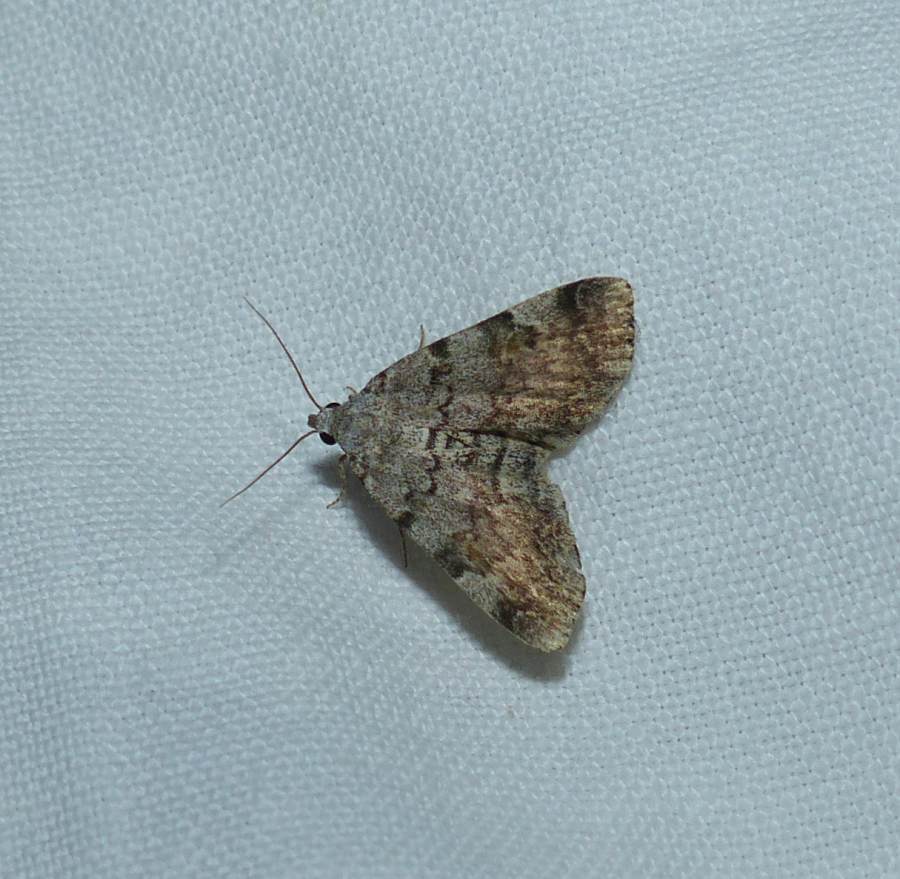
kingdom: Animalia
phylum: Arthropoda
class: Insecta
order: Lepidoptera
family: Erebidae
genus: Idia
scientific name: Idia americalis
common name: American idia moth
